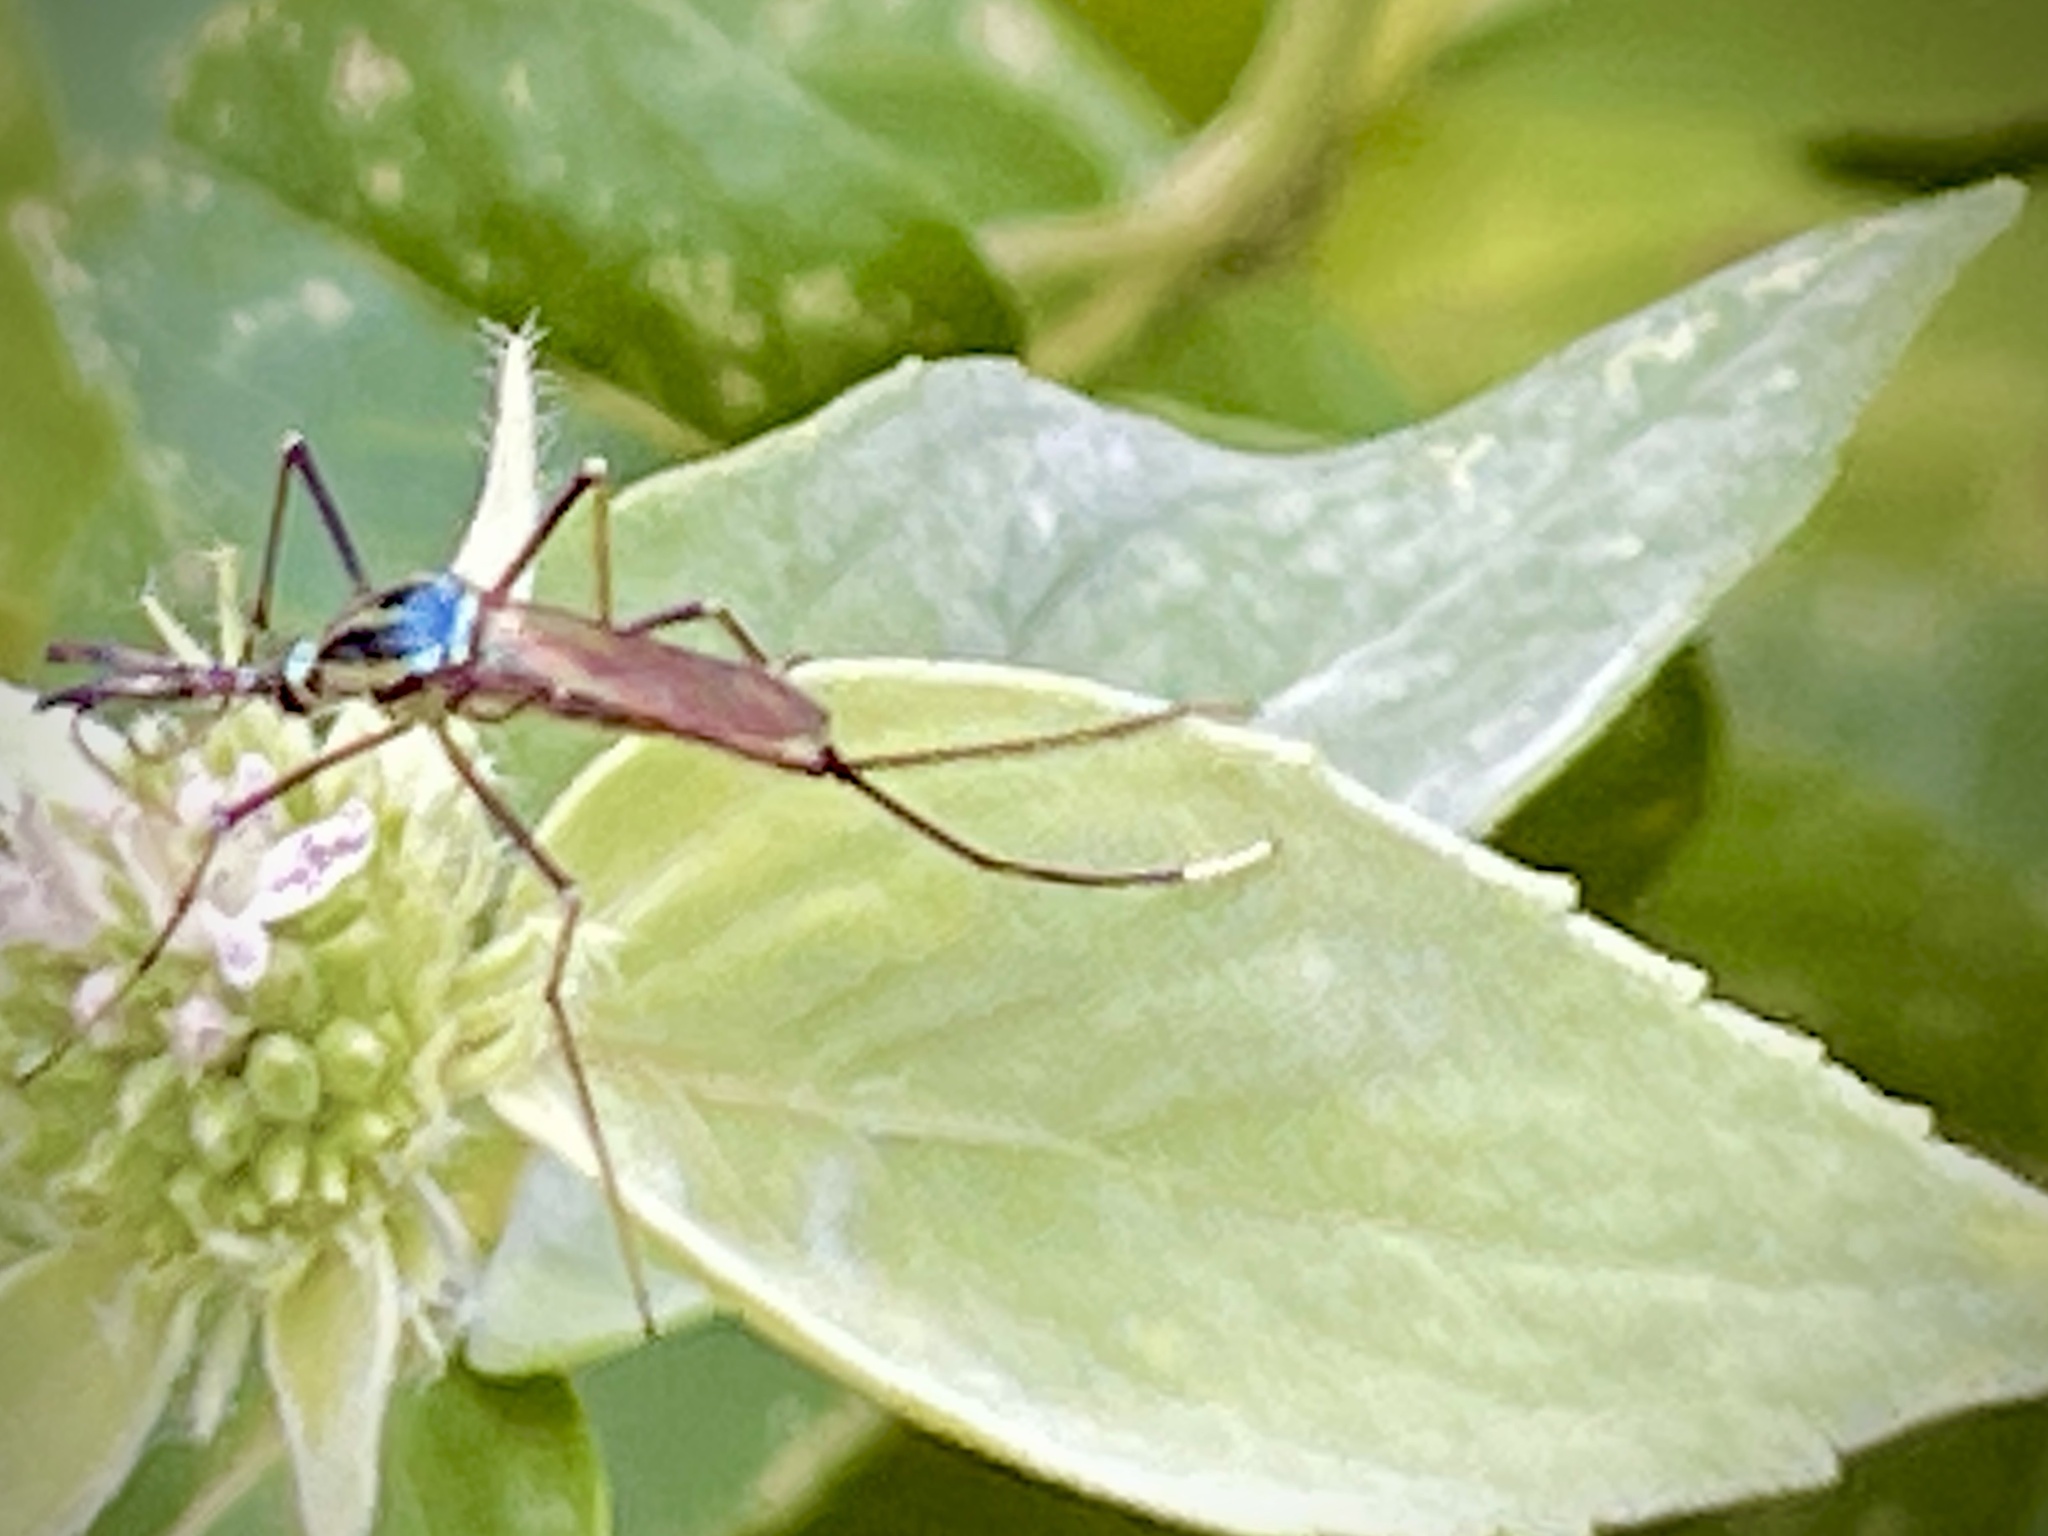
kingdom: Animalia
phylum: Arthropoda
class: Insecta
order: Diptera
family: Culicidae
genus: Toxorhynchites
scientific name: Toxorhynchites rutilus
